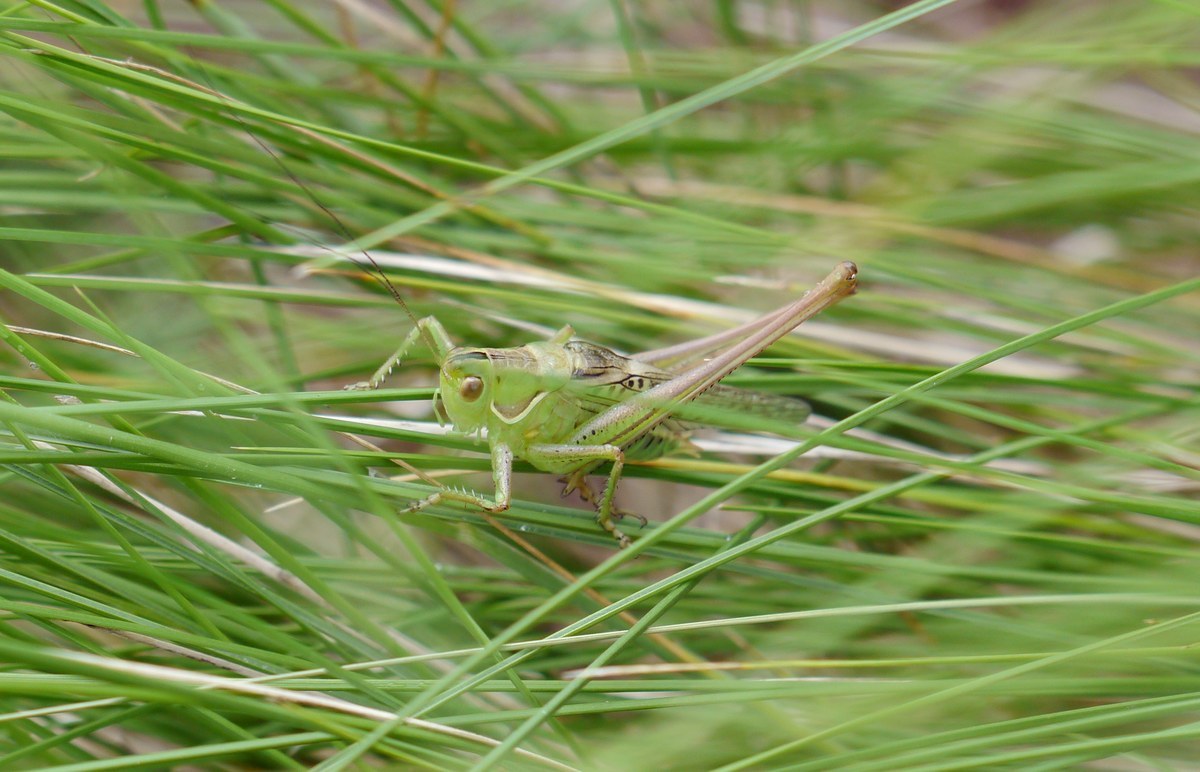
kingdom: Animalia
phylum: Arthropoda
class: Insecta
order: Orthoptera
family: Tettigoniidae
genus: Gampsocleis
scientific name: Gampsocleis glabra
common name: Heath bushcricket
